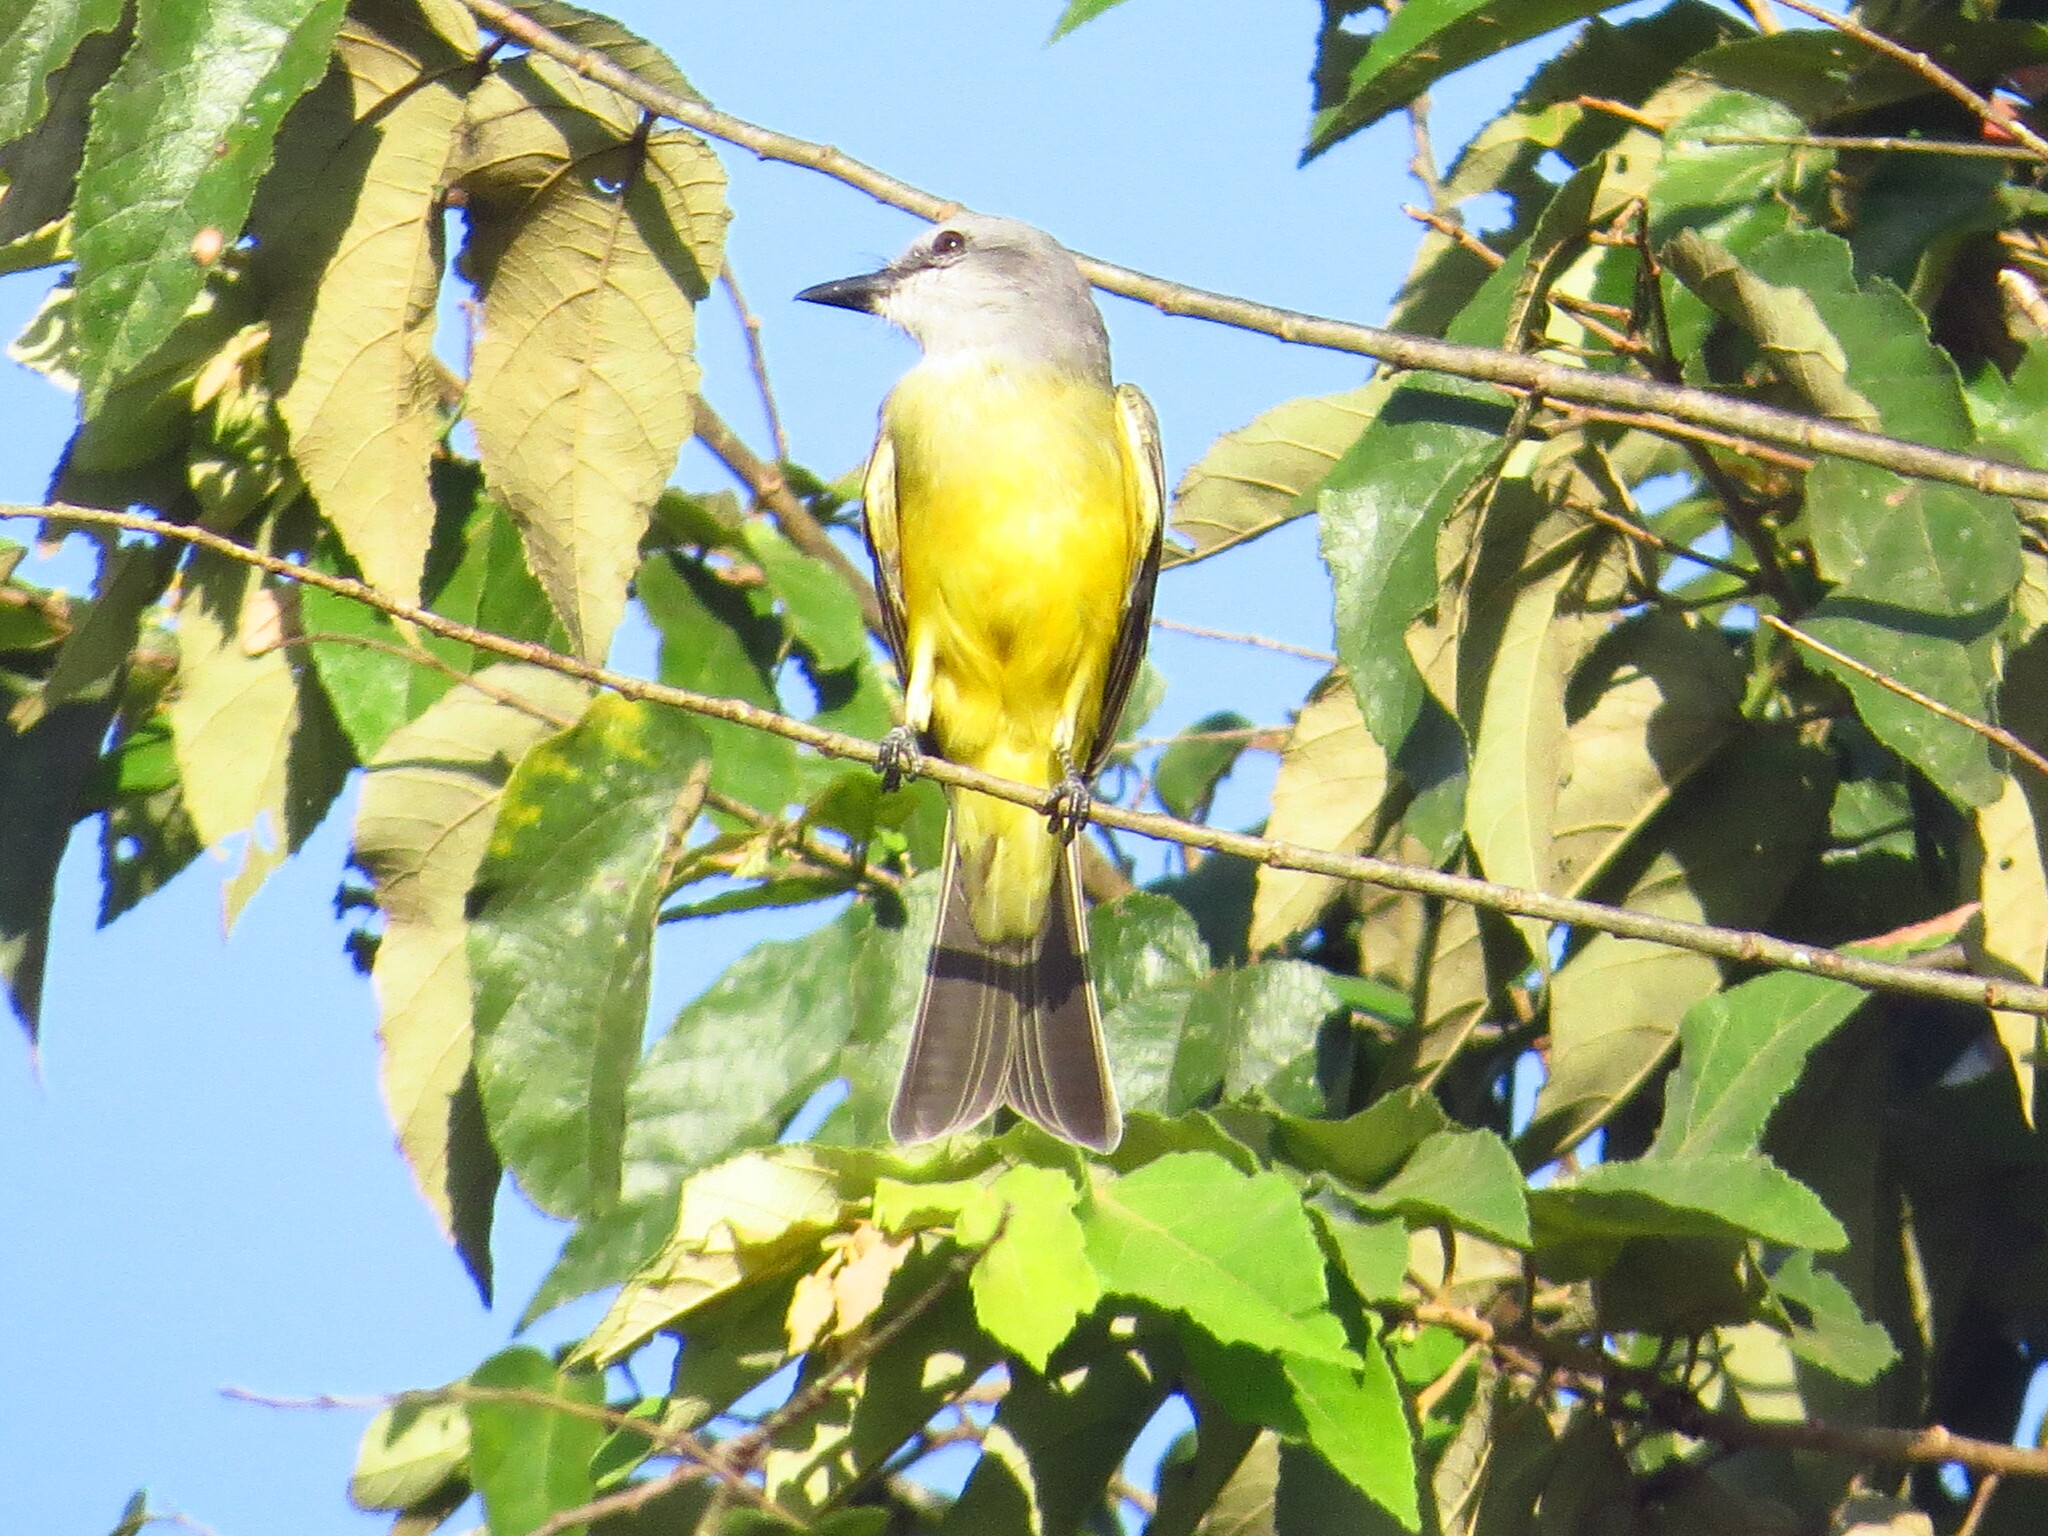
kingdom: Animalia
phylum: Chordata
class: Aves
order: Passeriformes
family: Tyrannidae
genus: Tyrannus
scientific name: Tyrannus melancholicus
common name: Tropical kingbird
